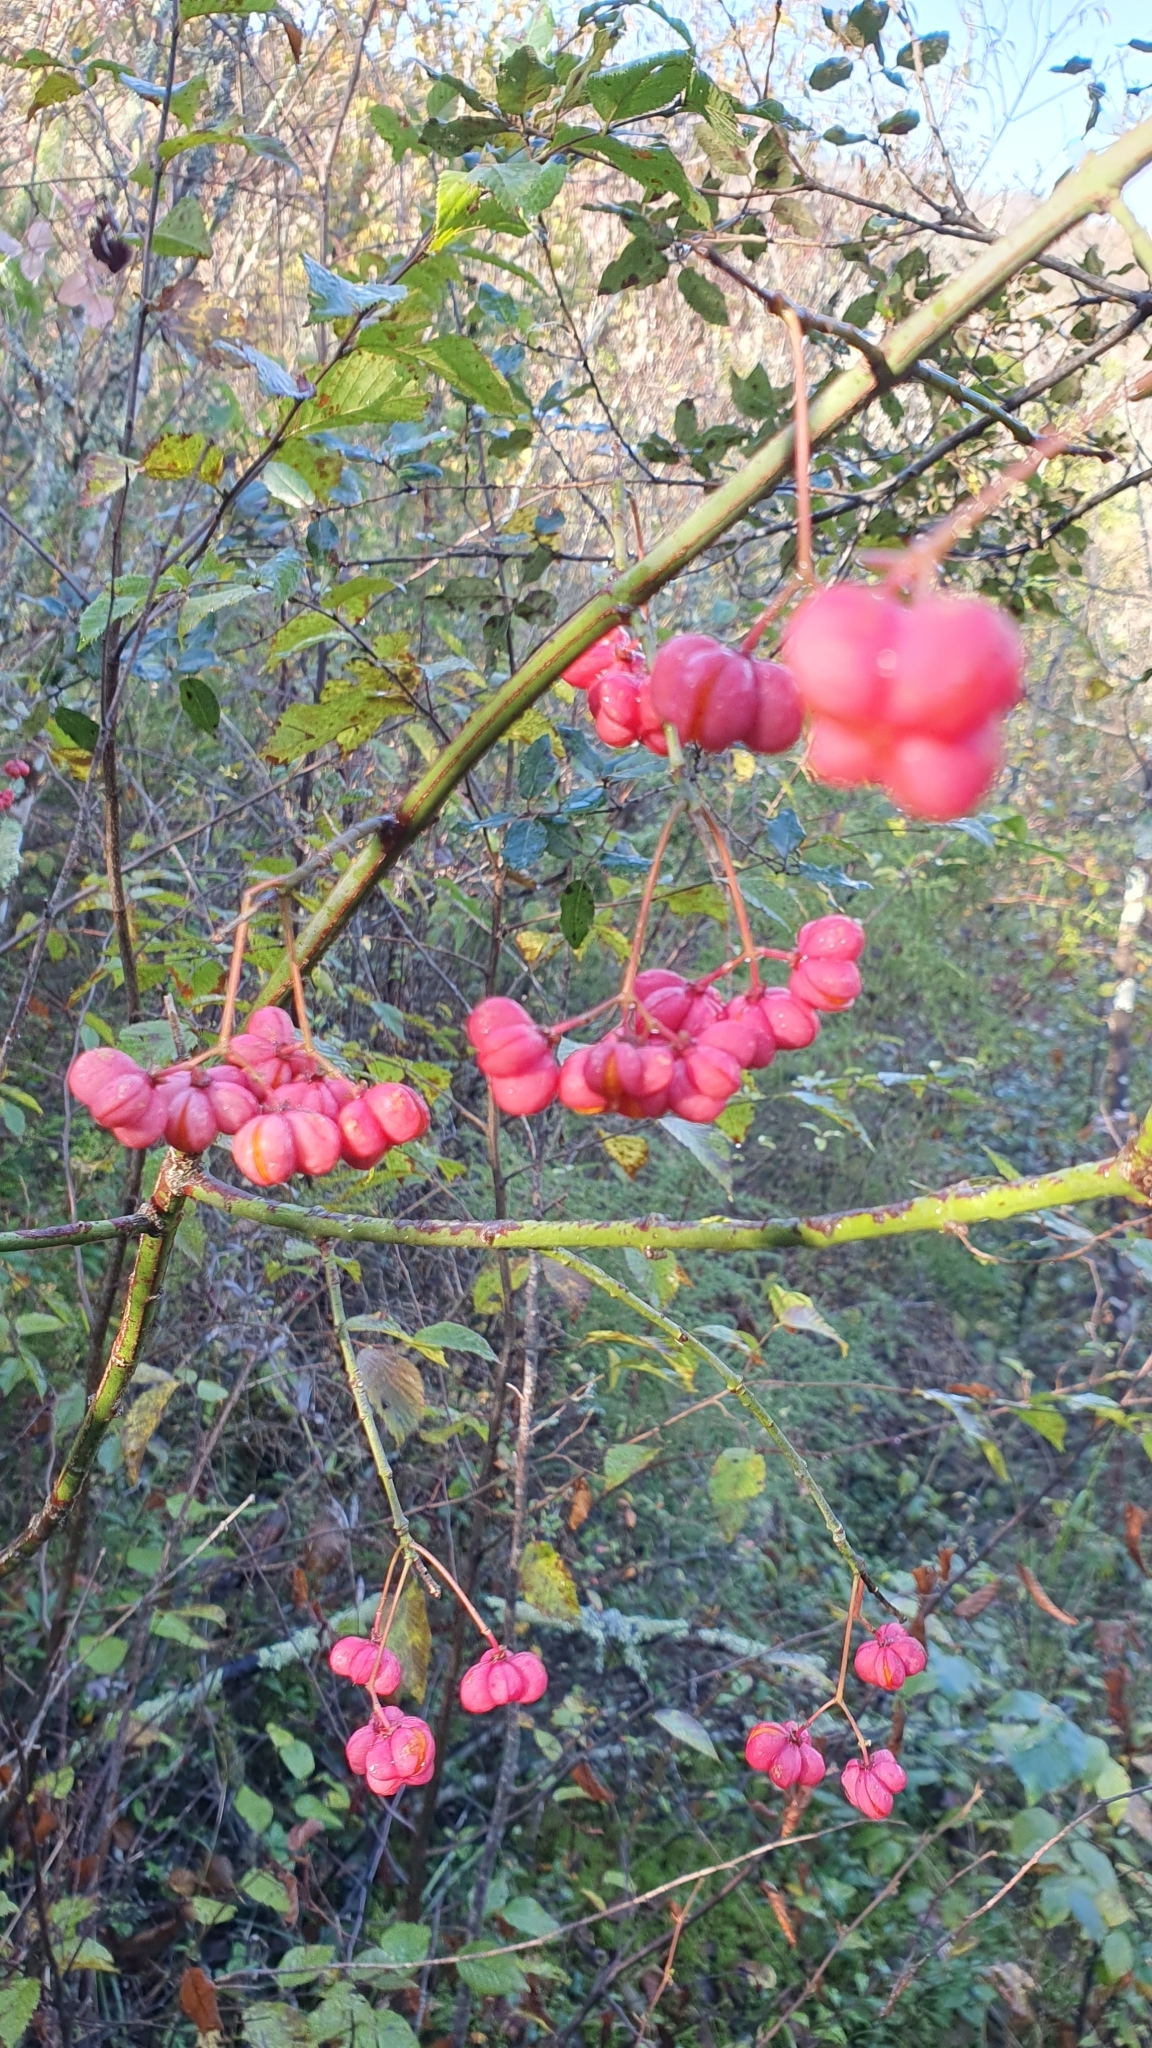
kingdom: Plantae
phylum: Tracheophyta
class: Magnoliopsida
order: Celastrales
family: Celastraceae
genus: Euonymus
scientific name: Euonymus europaeus
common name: Spindle
